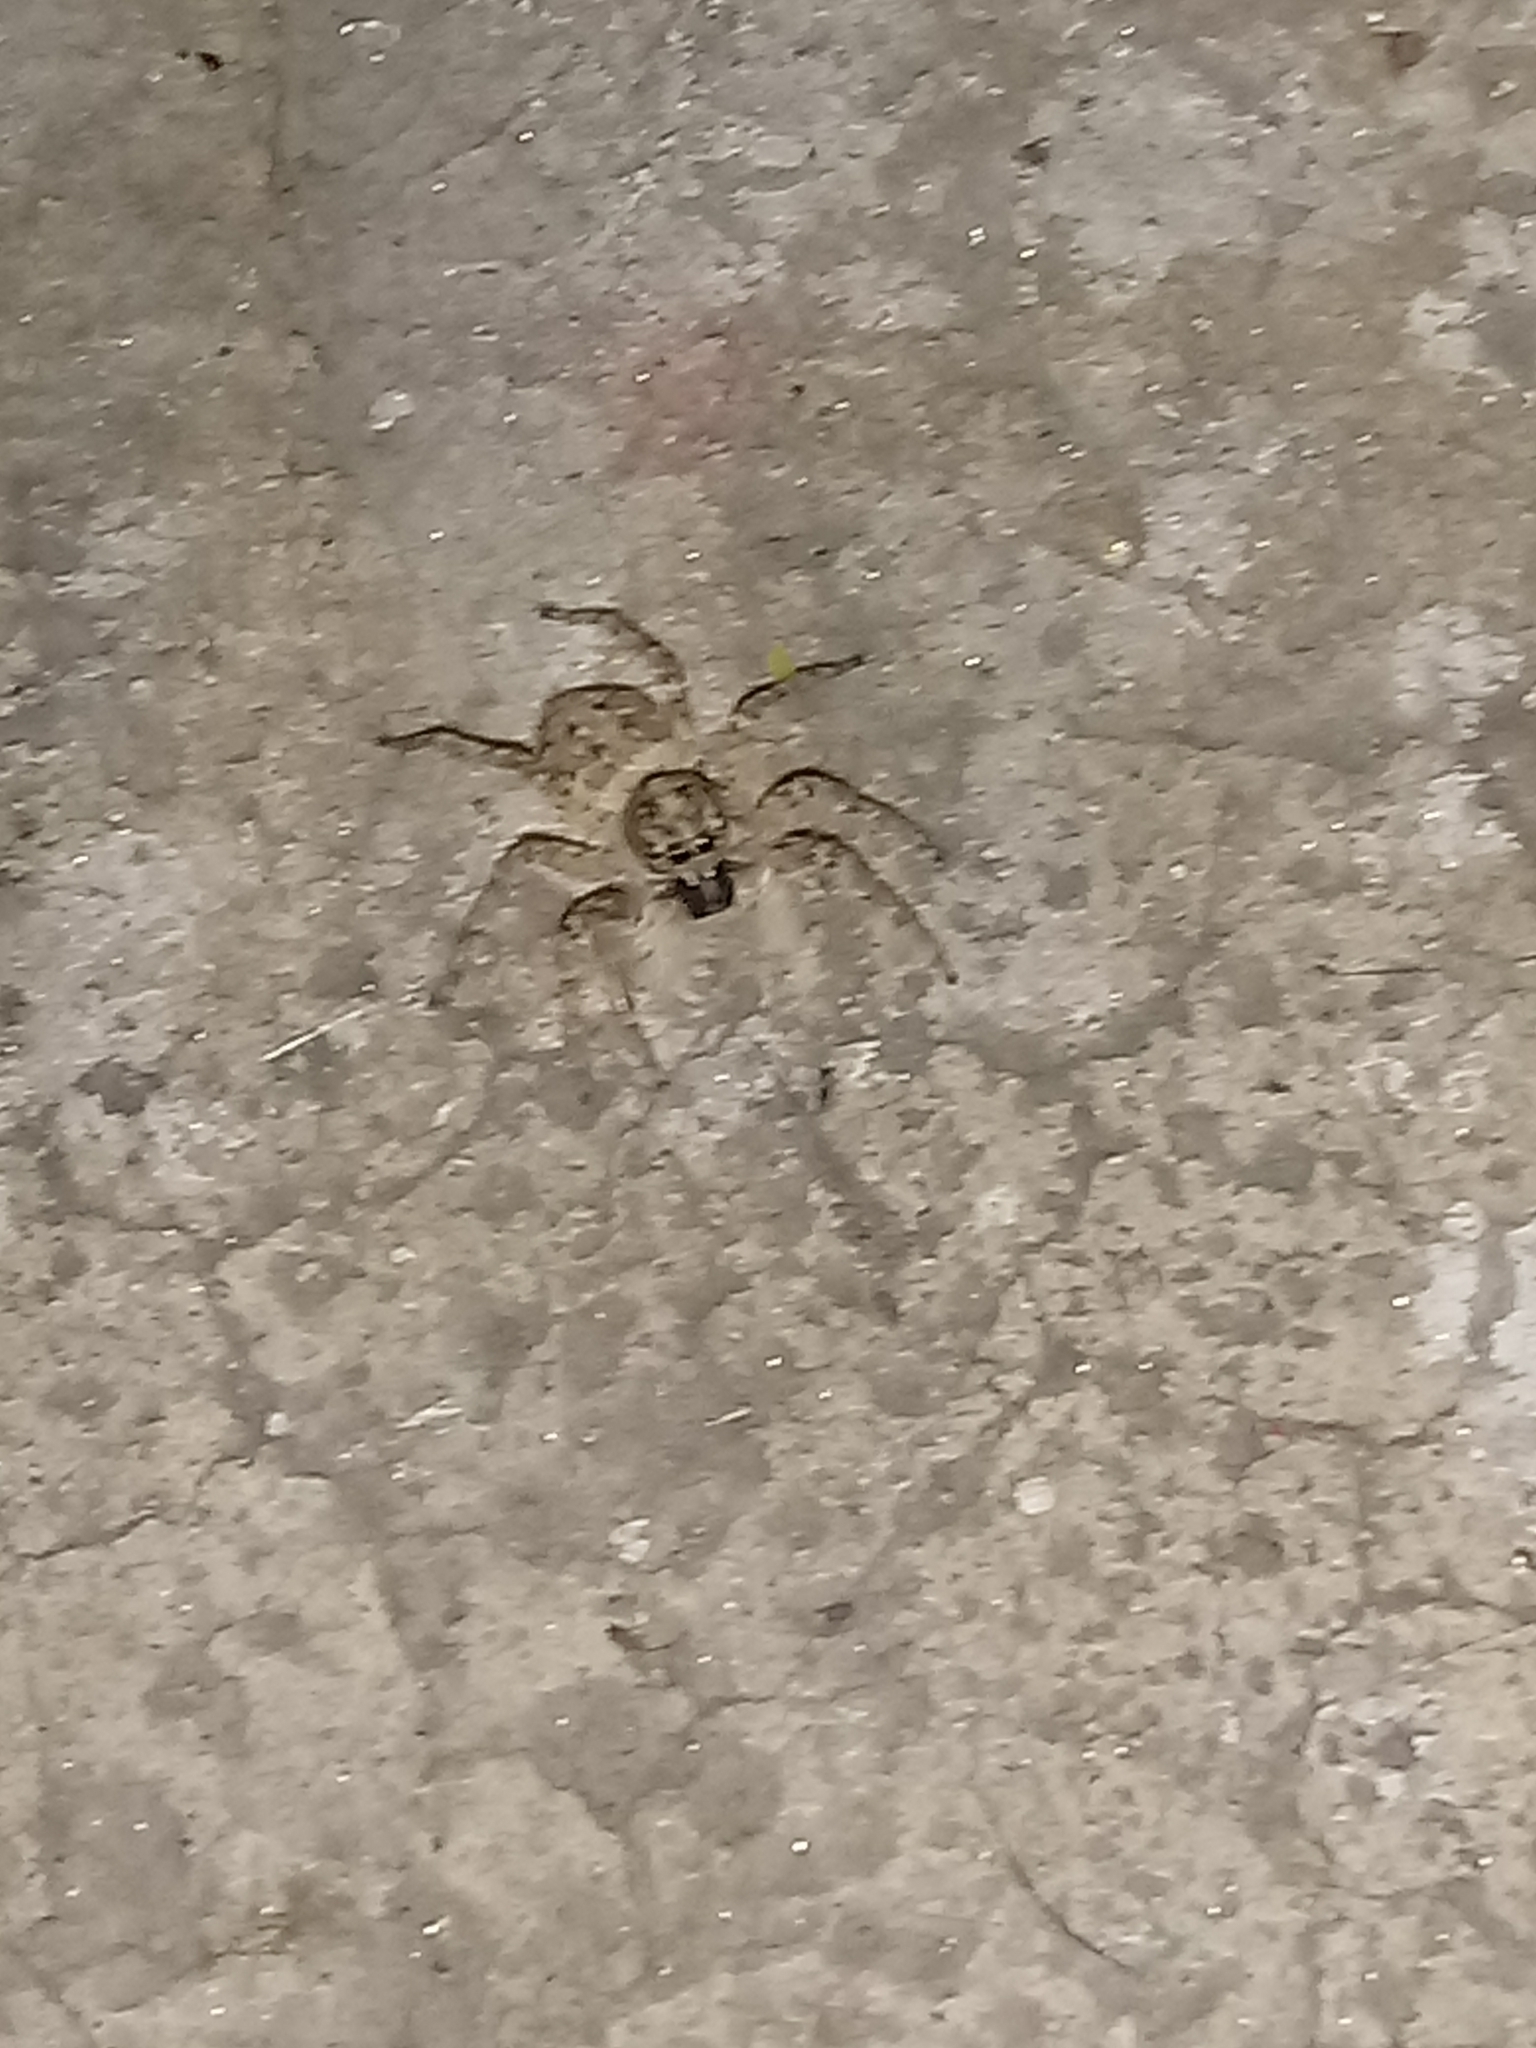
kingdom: Animalia
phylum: Arthropoda
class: Arachnida
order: Araneae
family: Salticidae
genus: Menemerus
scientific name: Menemerus semilimbatus
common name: Jumping spider
